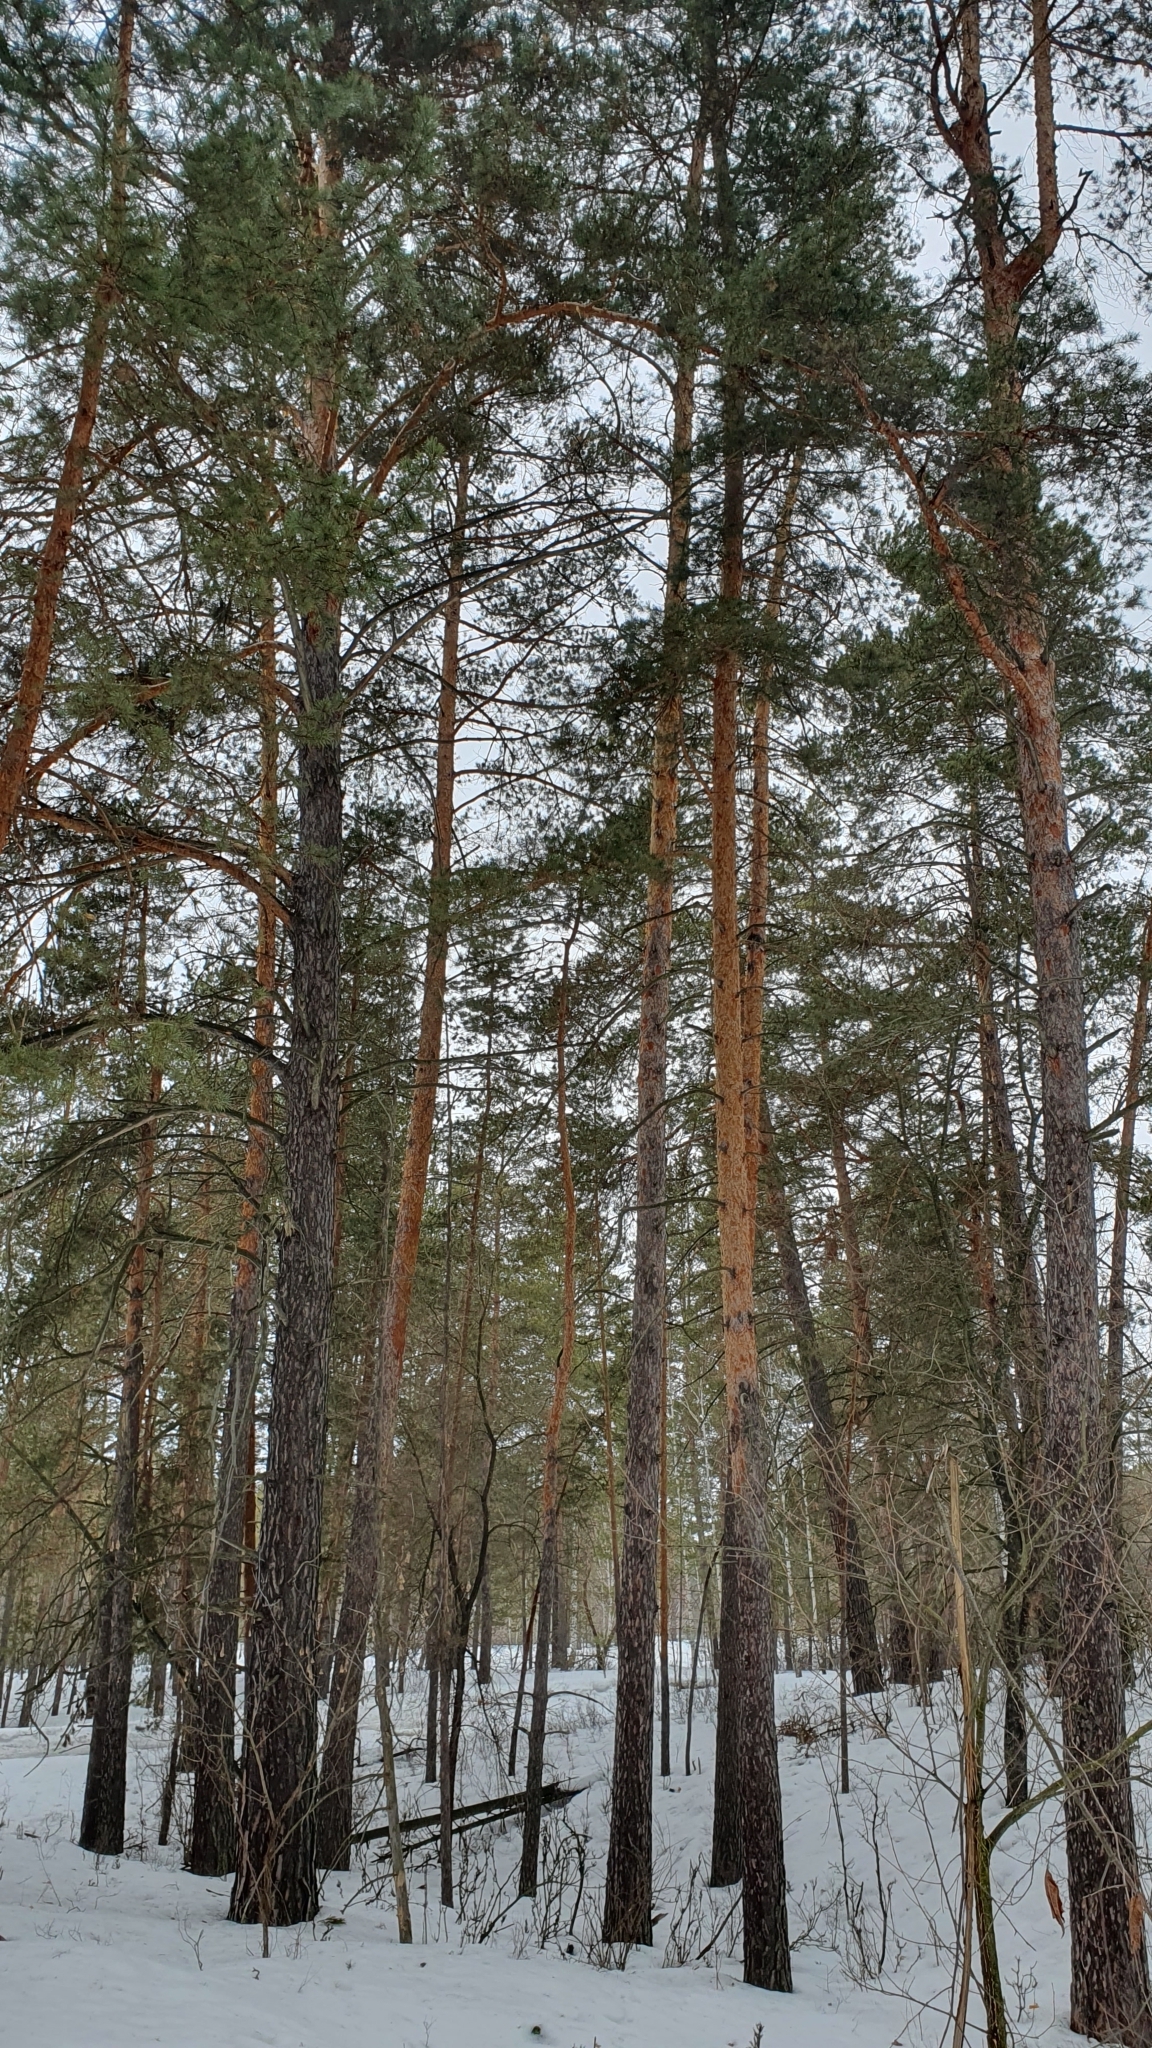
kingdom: Plantae
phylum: Tracheophyta
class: Pinopsida
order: Pinales
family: Pinaceae
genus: Pinus
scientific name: Pinus sylvestris
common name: Scots pine
